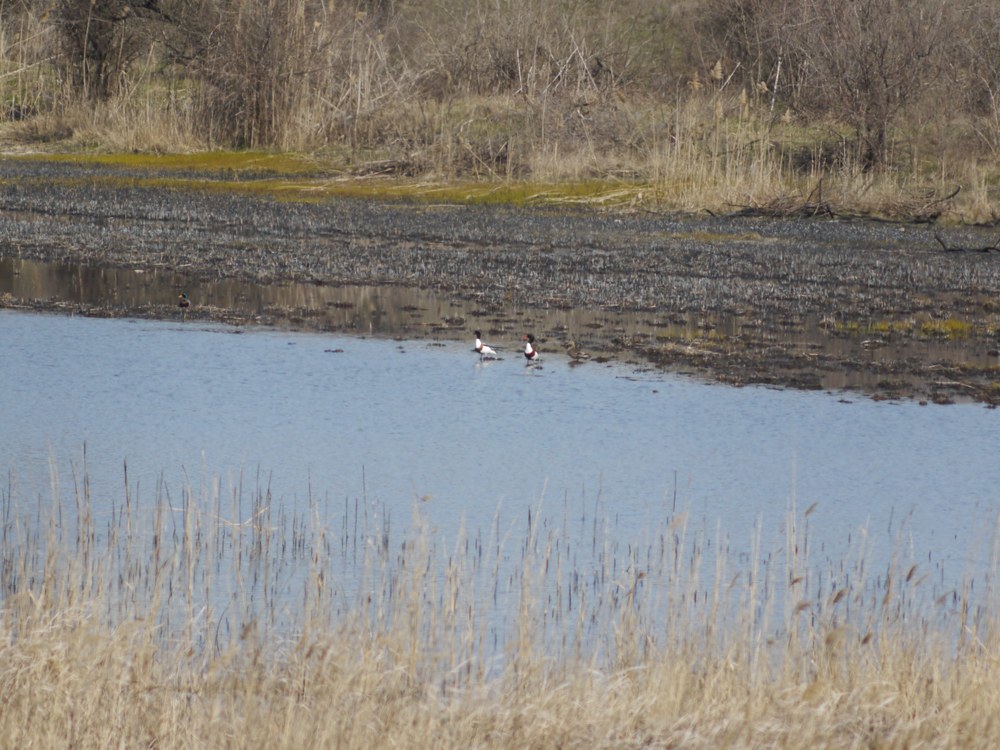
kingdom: Animalia
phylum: Chordata
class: Aves
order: Anseriformes
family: Anatidae
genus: Tadorna
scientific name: Tadorna tadorna
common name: Common shelduck
